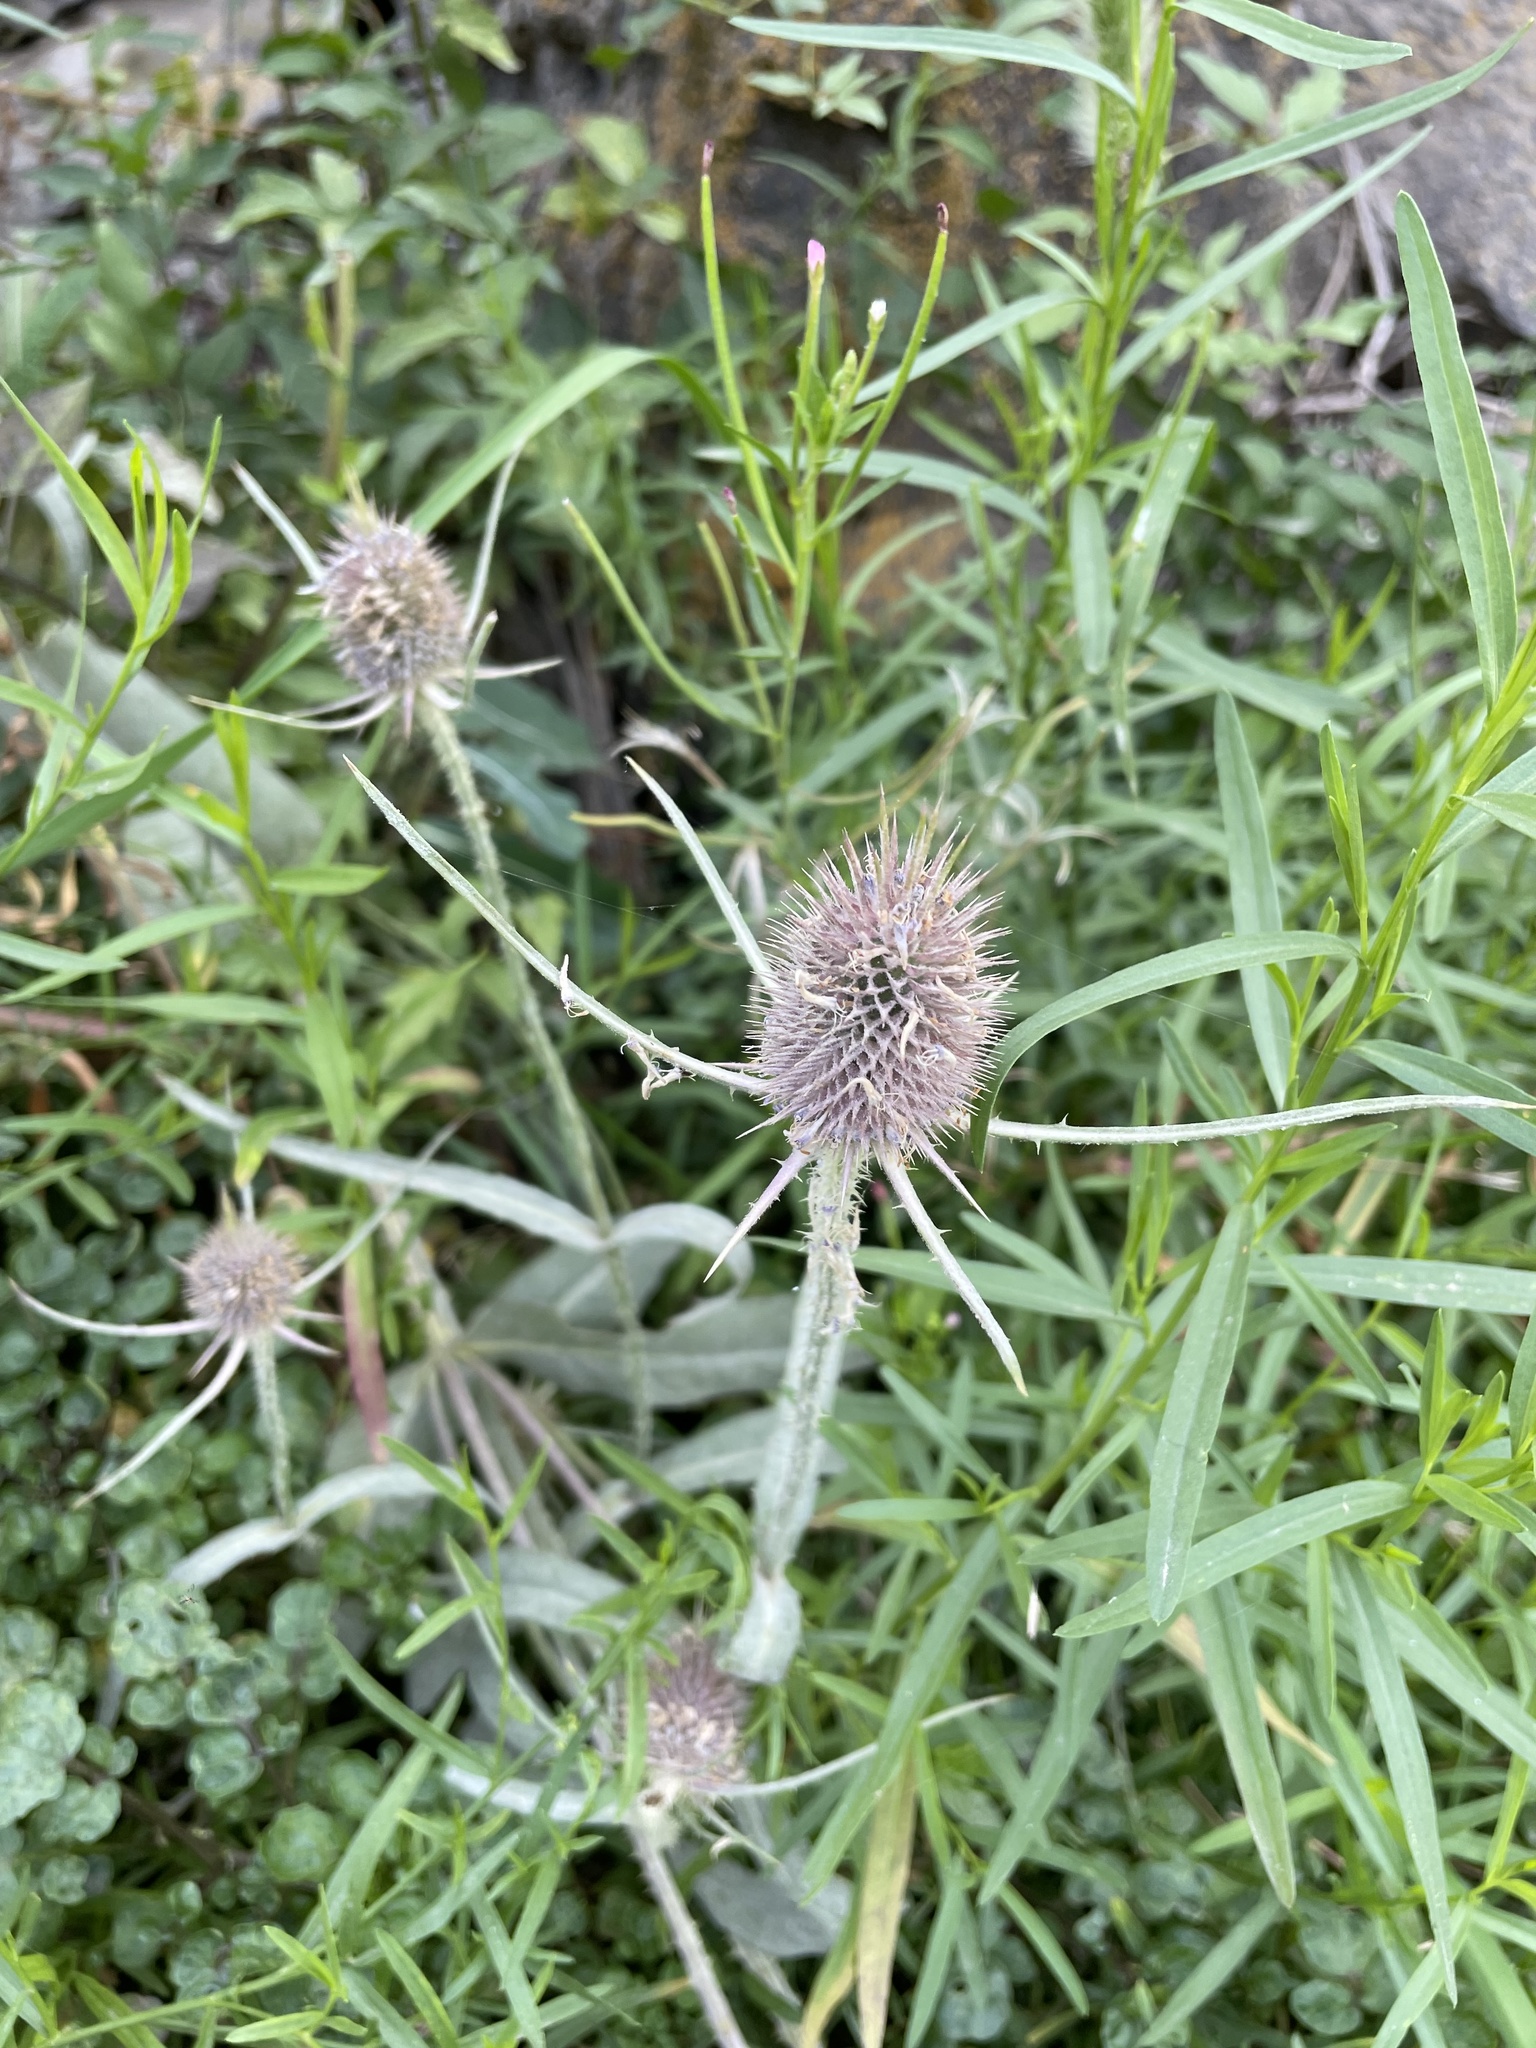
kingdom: Plantae
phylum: Tracheophyta
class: Magnoliopsida
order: Dipsacales
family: Caprifoliaceae
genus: Dipsacus
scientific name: Dipsacus fullonum
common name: Teasel
